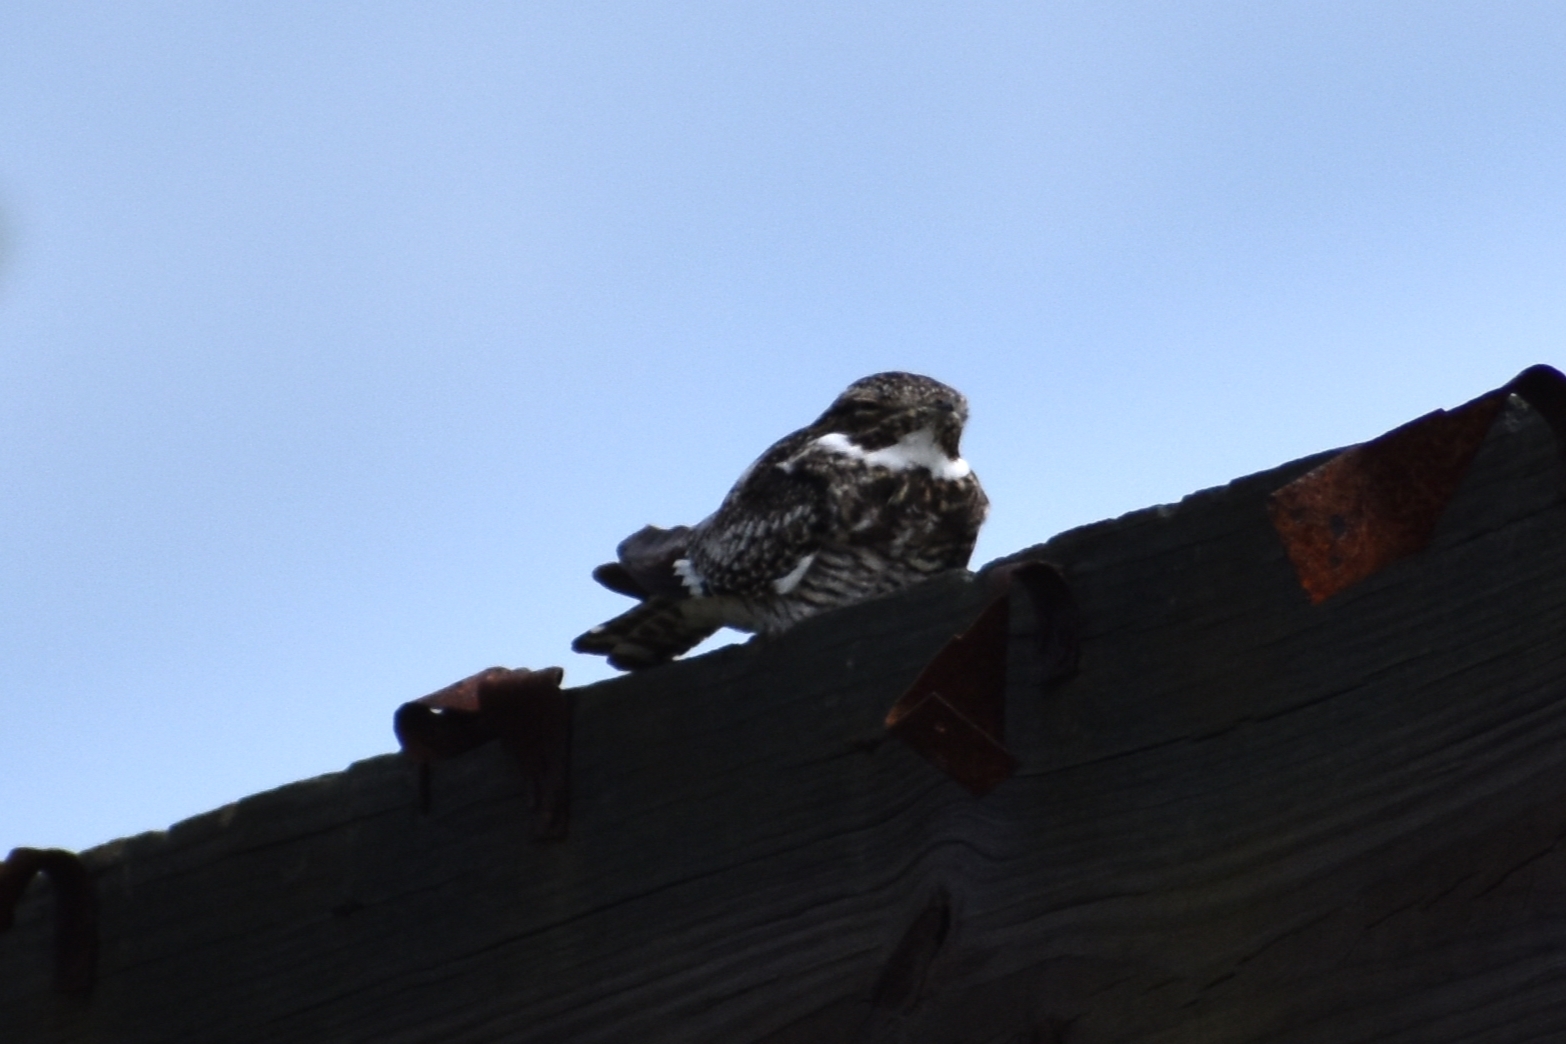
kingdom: Animalia
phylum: Chordata
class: Aves
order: Caprimulgiformes
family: Caprimulgidae
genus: Chordeiles
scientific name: Chordeiles minor
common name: Common nighthawk
